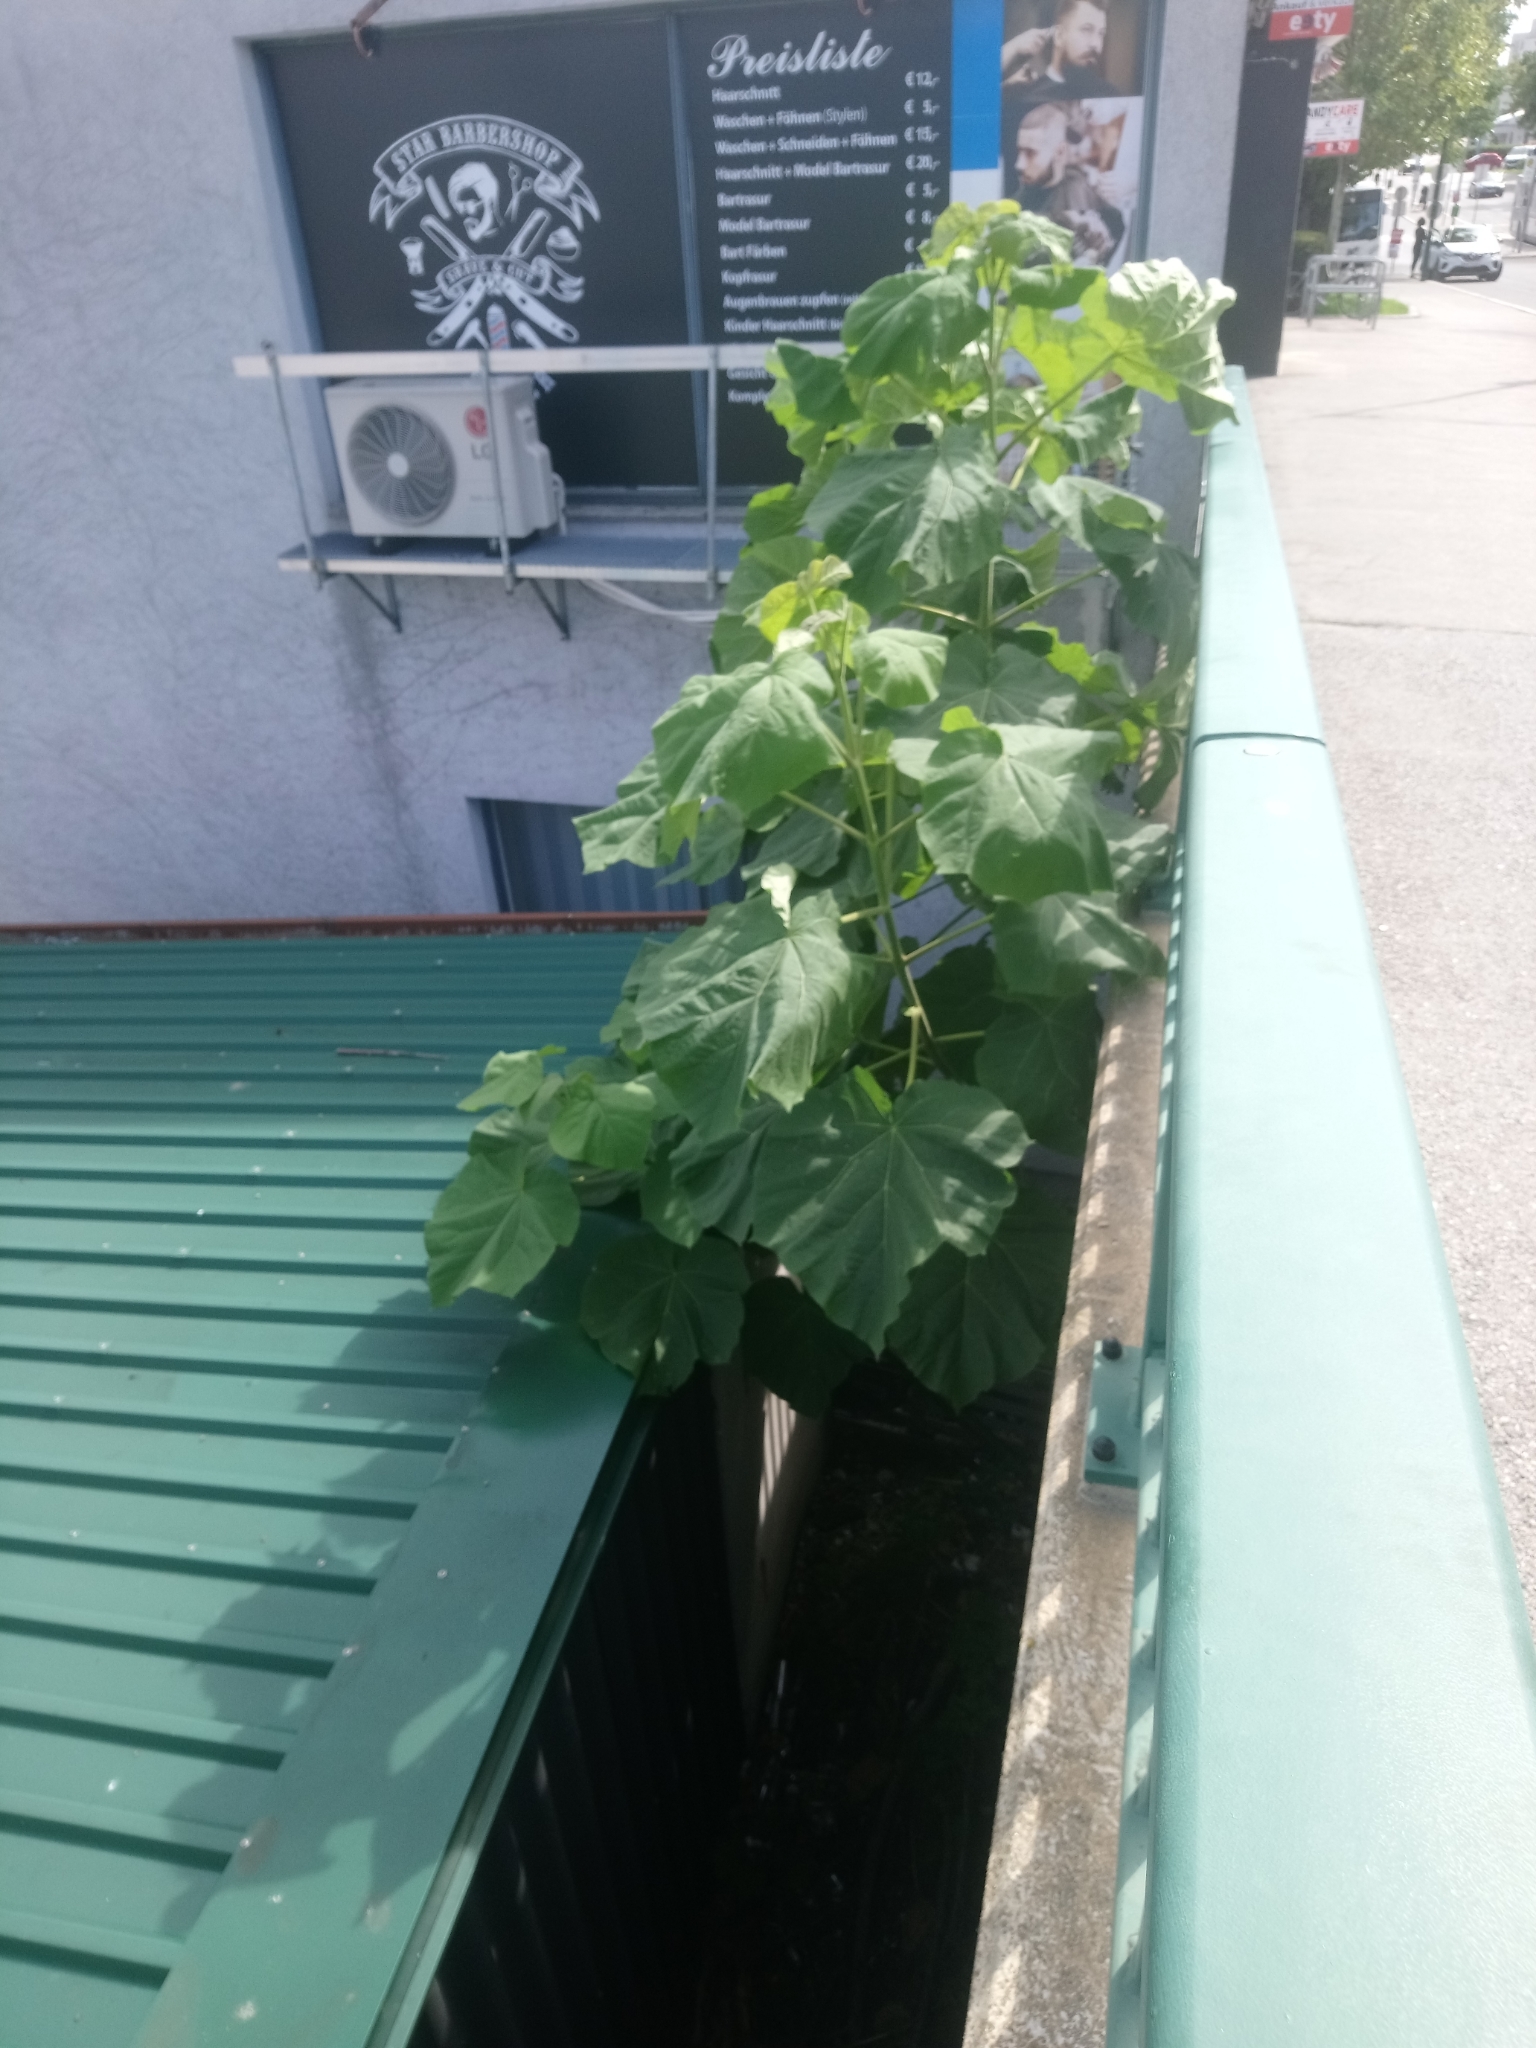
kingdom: Plantae
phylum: Tracheophyta
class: Magnoliopsida
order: Lamiales
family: Paulowniaceae
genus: Paulownia
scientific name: Paulownia tomentosa
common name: Foxglove-tree
